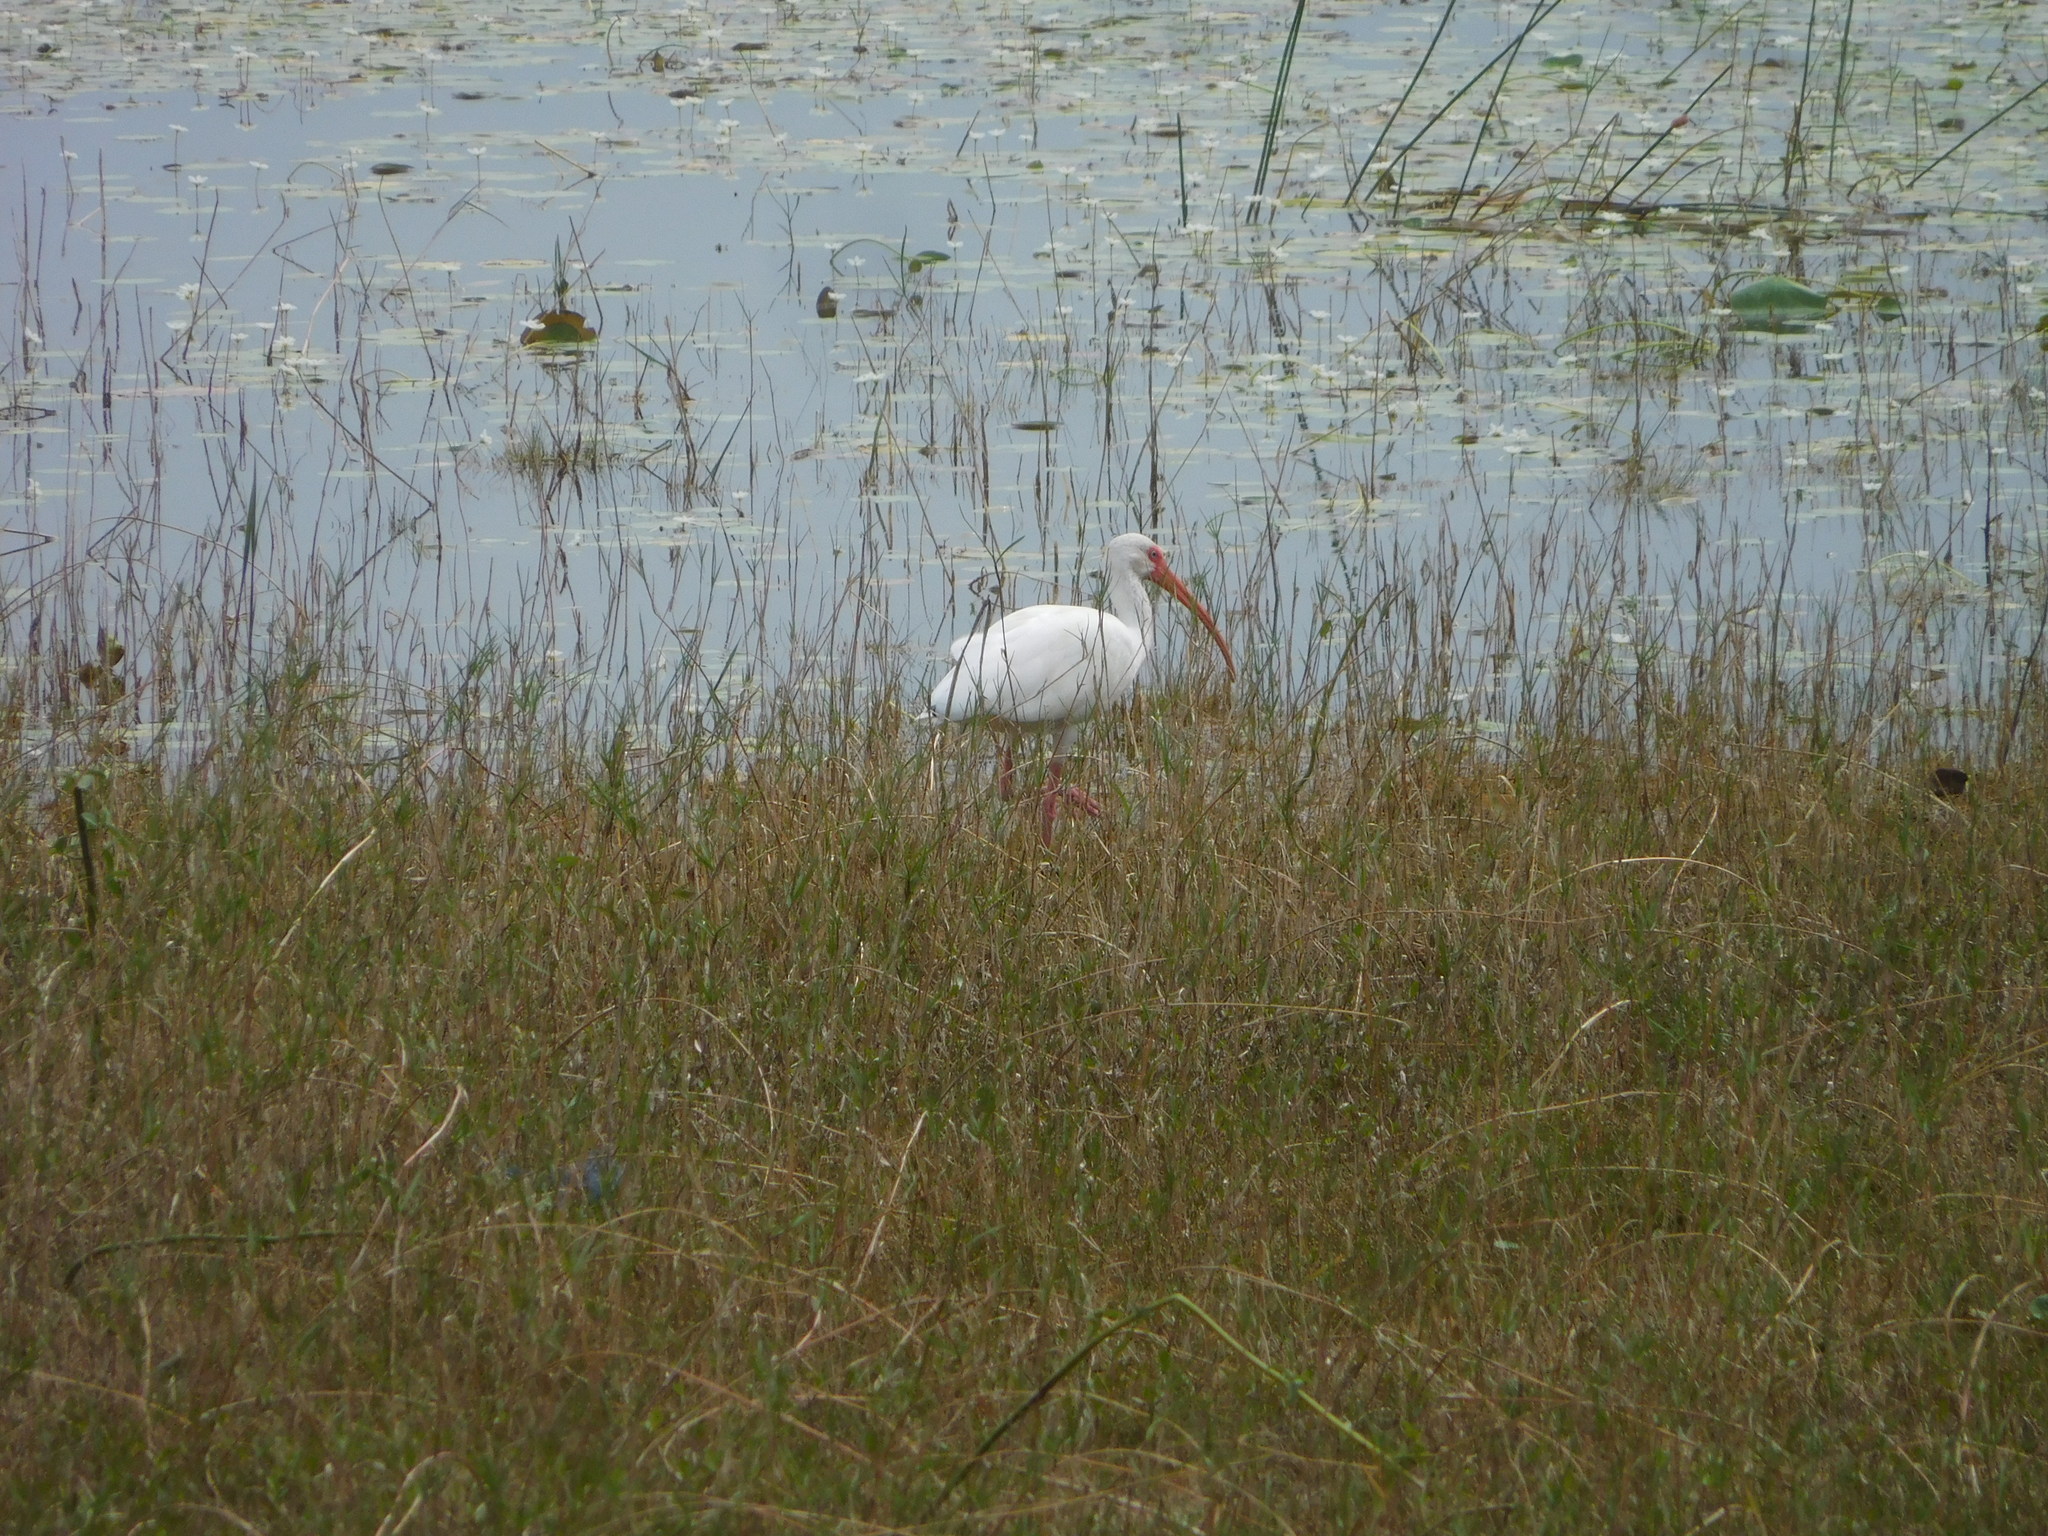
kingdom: Animalia
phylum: Chordata
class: Aves
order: Pelecaniformes
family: Threskiornithidae
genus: Eudocimus
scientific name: Eudocimus albus
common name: White ibis
